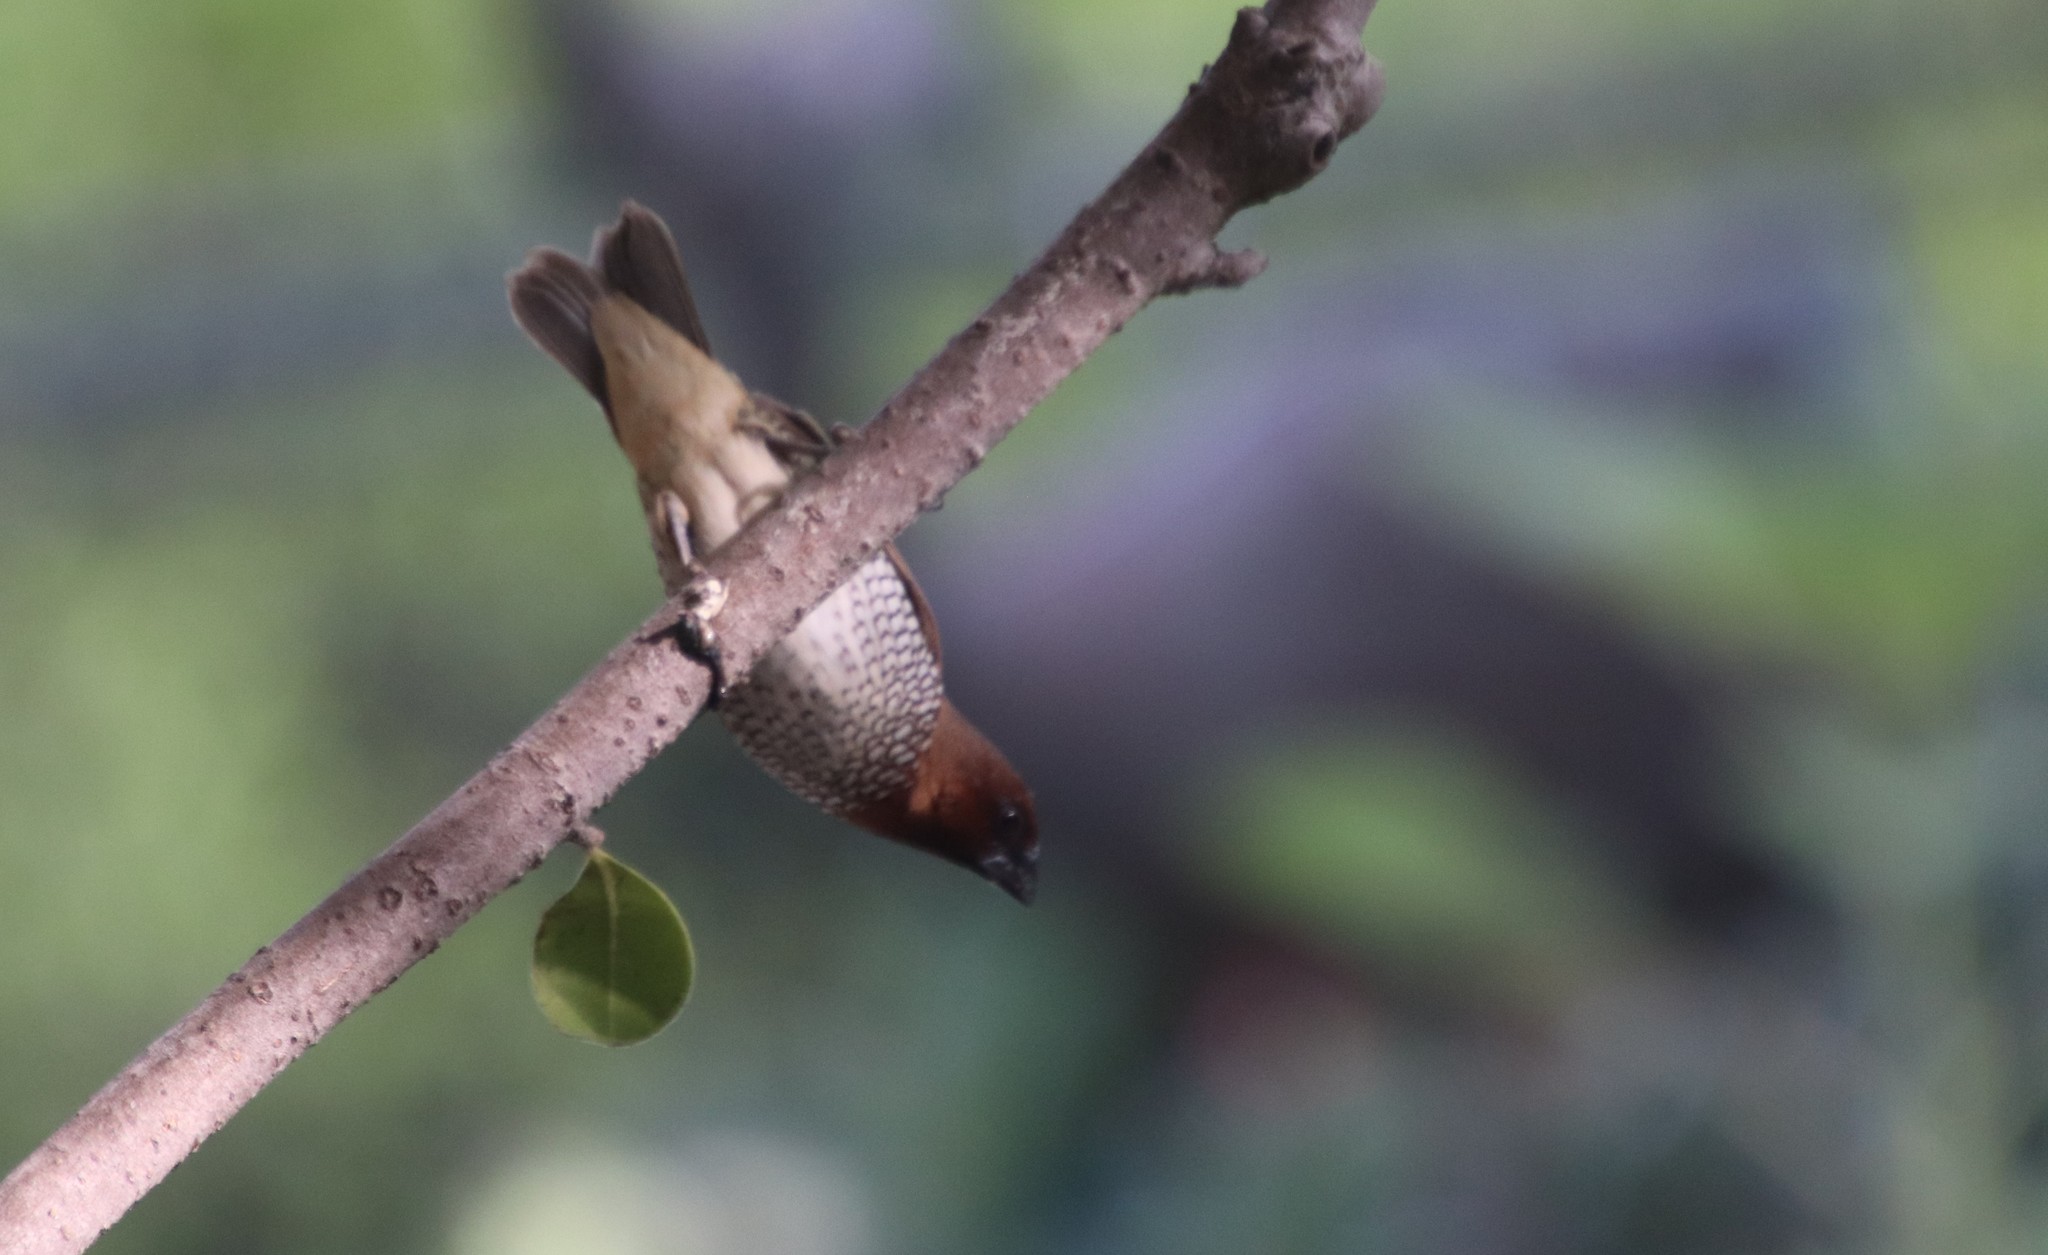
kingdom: Animalia
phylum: Chordata
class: Aves
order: Passeriformes
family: Estrildidae
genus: Lonchura
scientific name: Lonchura punctulata
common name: Scaly-breasted munia
